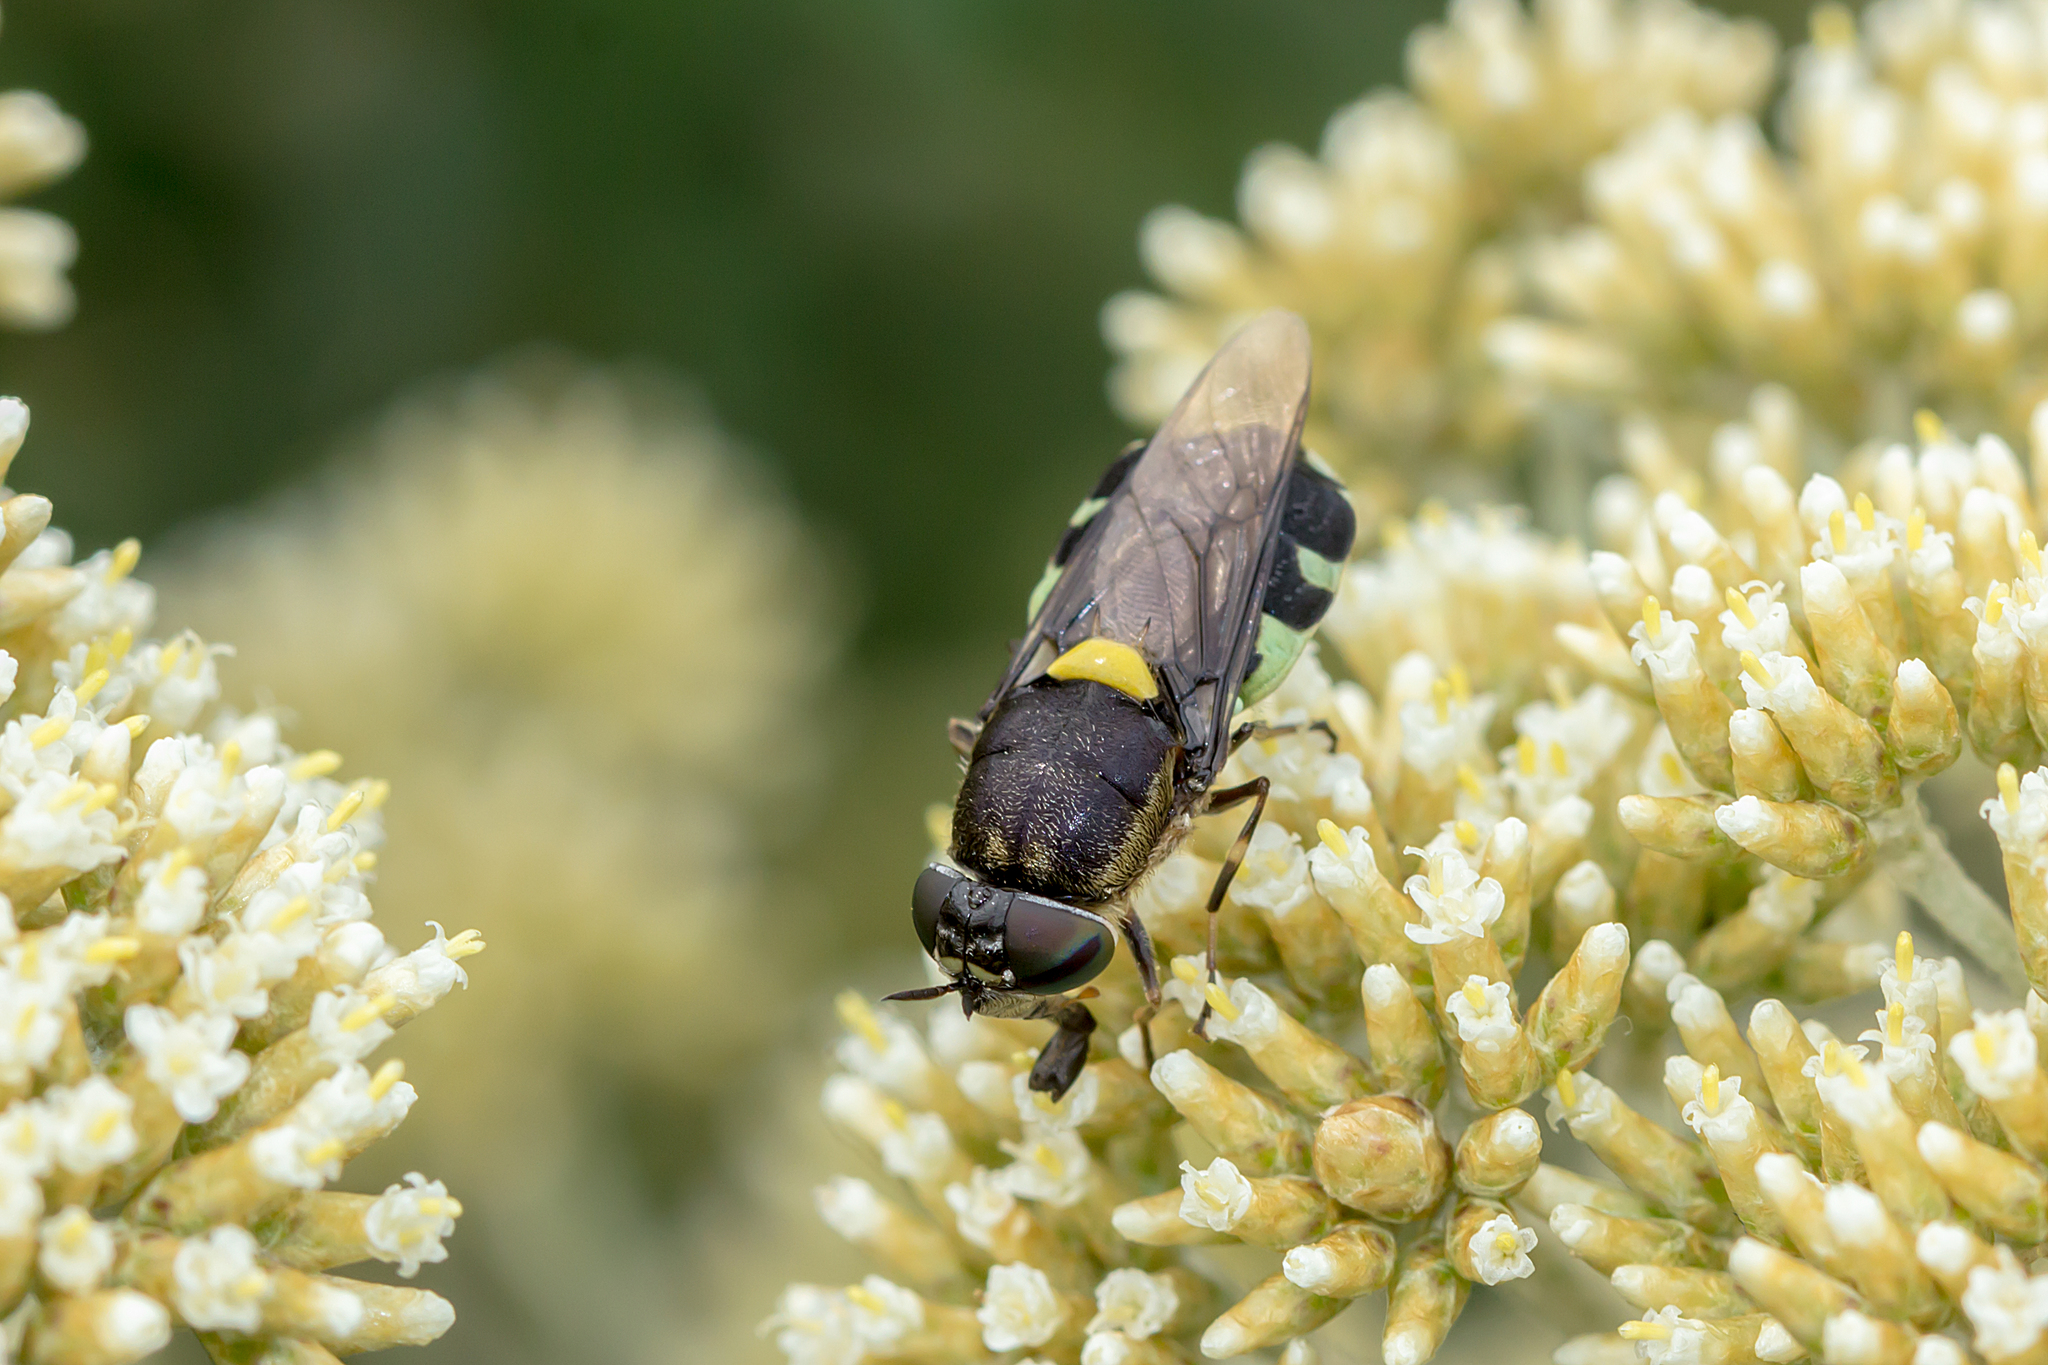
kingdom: Animalia
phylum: Arthropoda
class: Insecta
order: Diptera
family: Stratiomyidae
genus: Odontomyia
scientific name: Odontomyia hunteri
